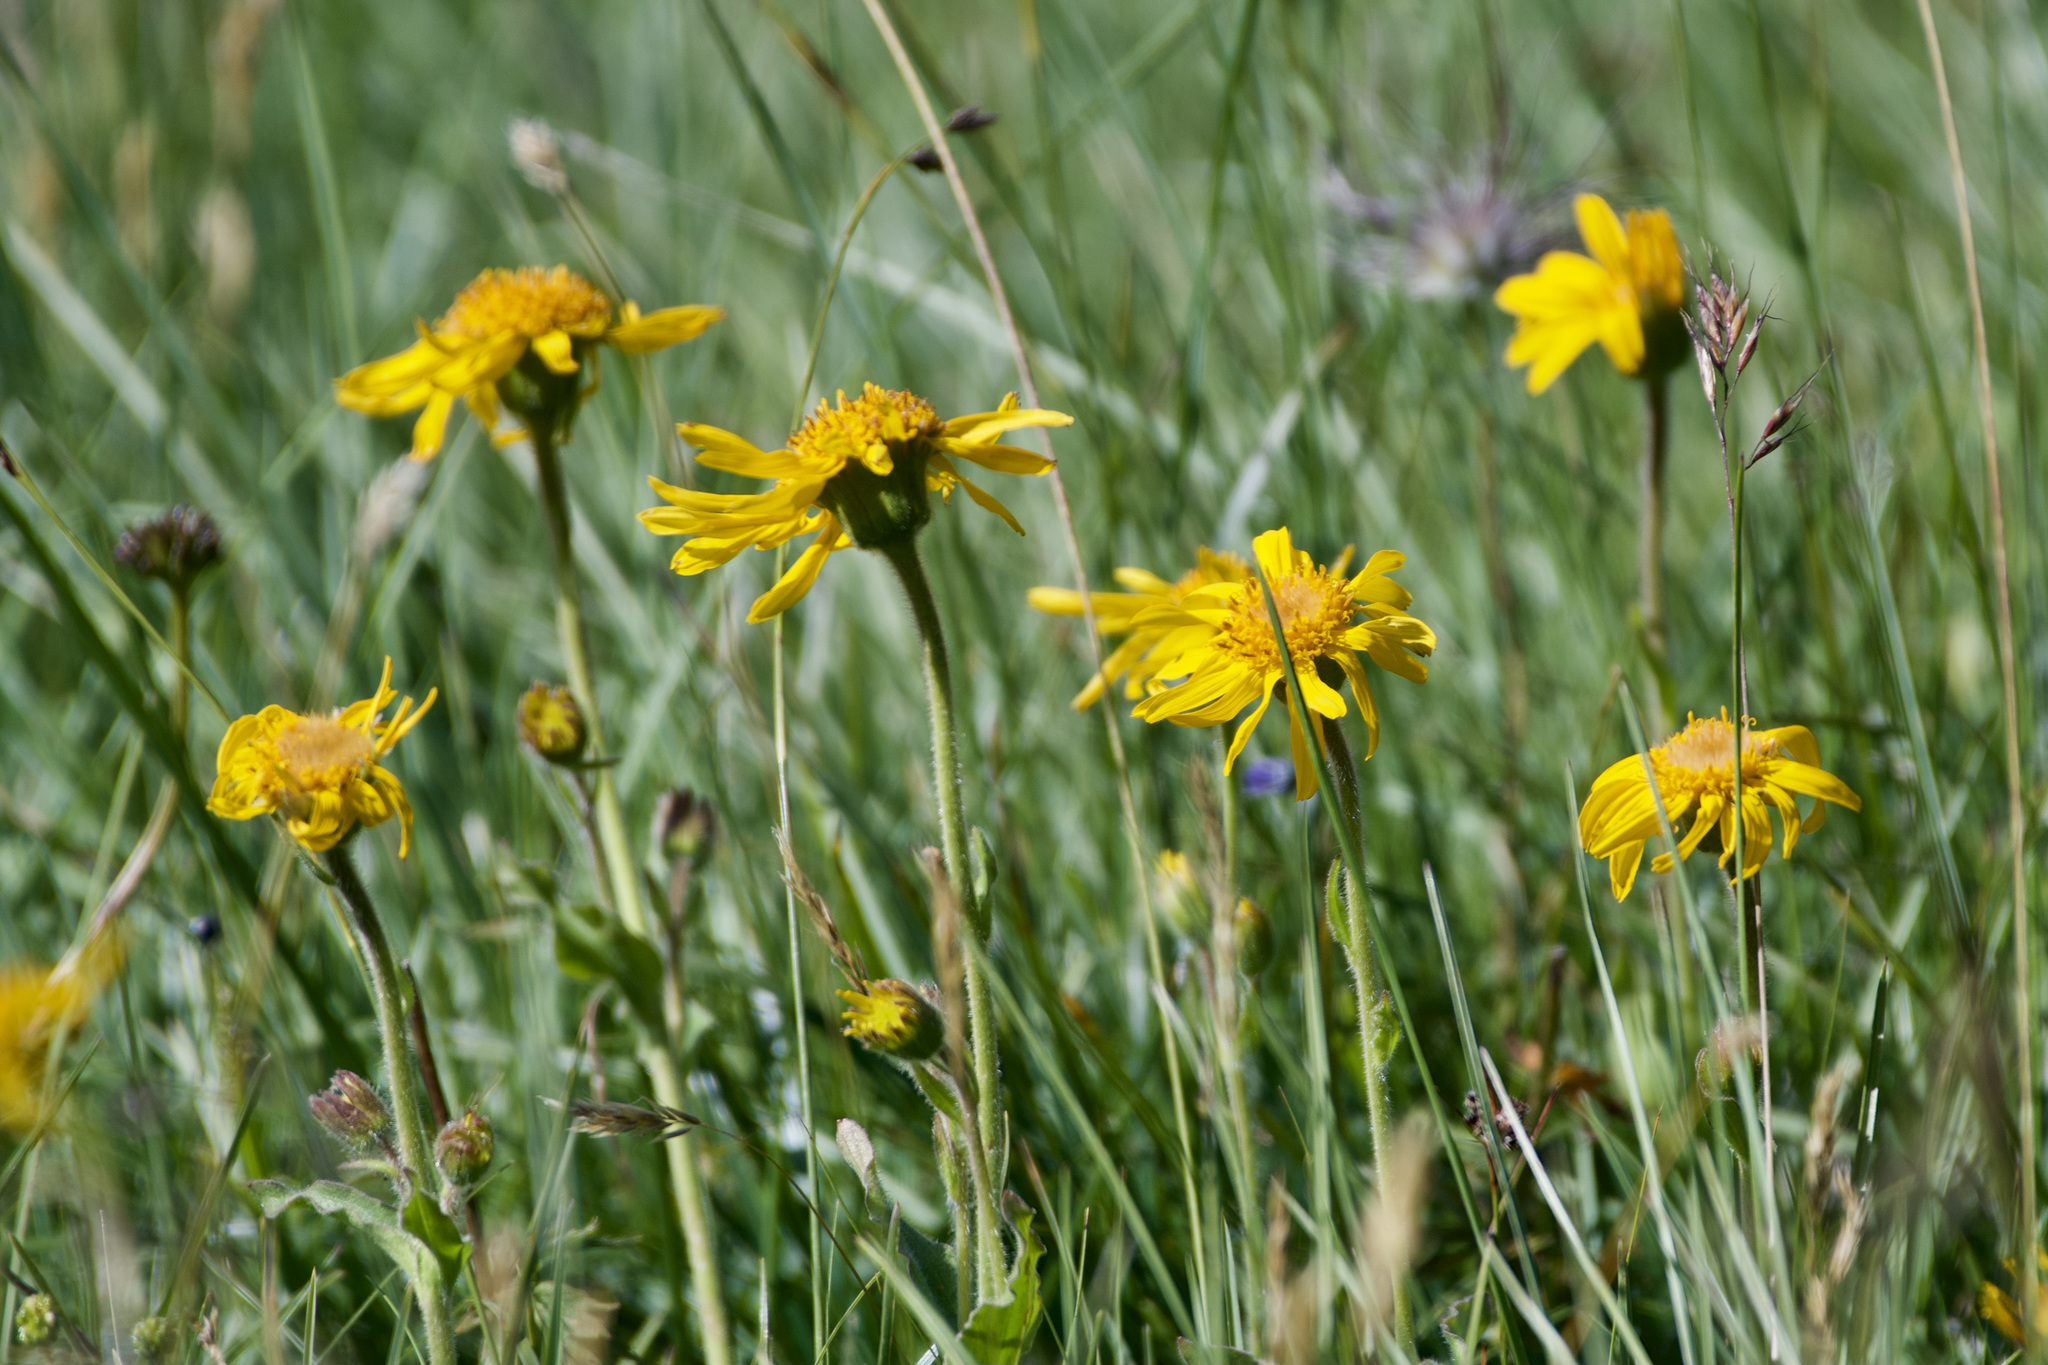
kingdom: Plantae
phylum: Tracheophyta
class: Magnoliopsida
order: Asterales
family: Asteraceae
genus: Arnica
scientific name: Arnica montana
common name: Leopard's bane
